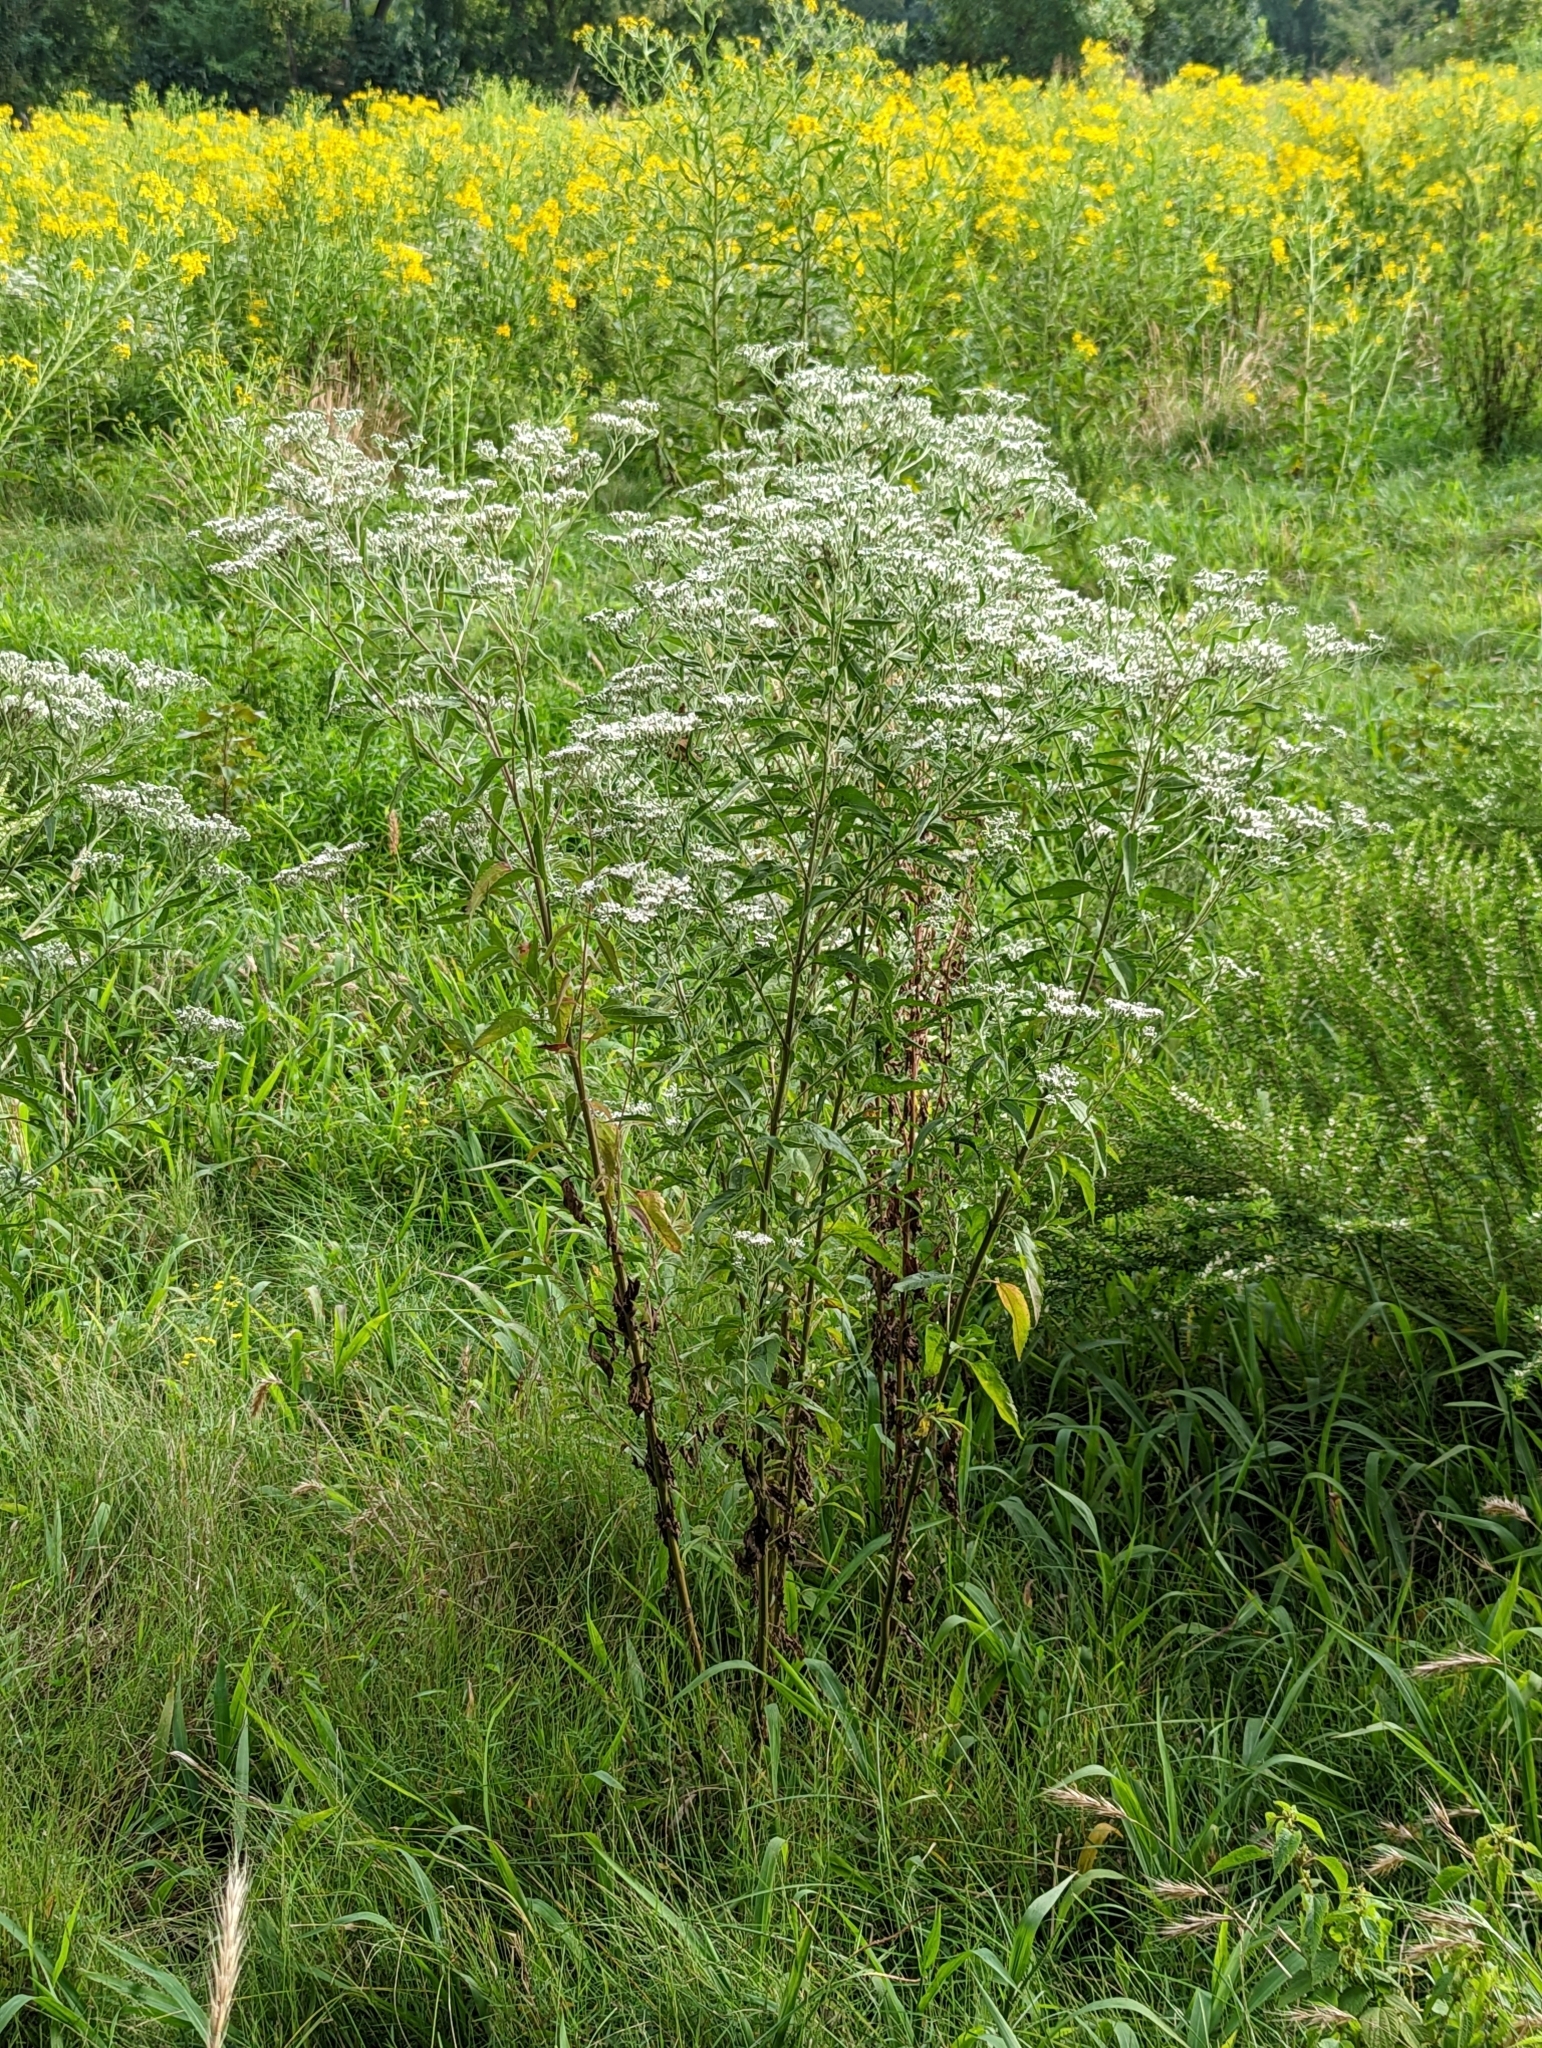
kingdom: Plantae
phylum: Tracheophyta
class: Magnoliopsida
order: Asterales
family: Asteraceae
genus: Eupatorium
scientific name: Eupatorium serotinum
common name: Late boneset
